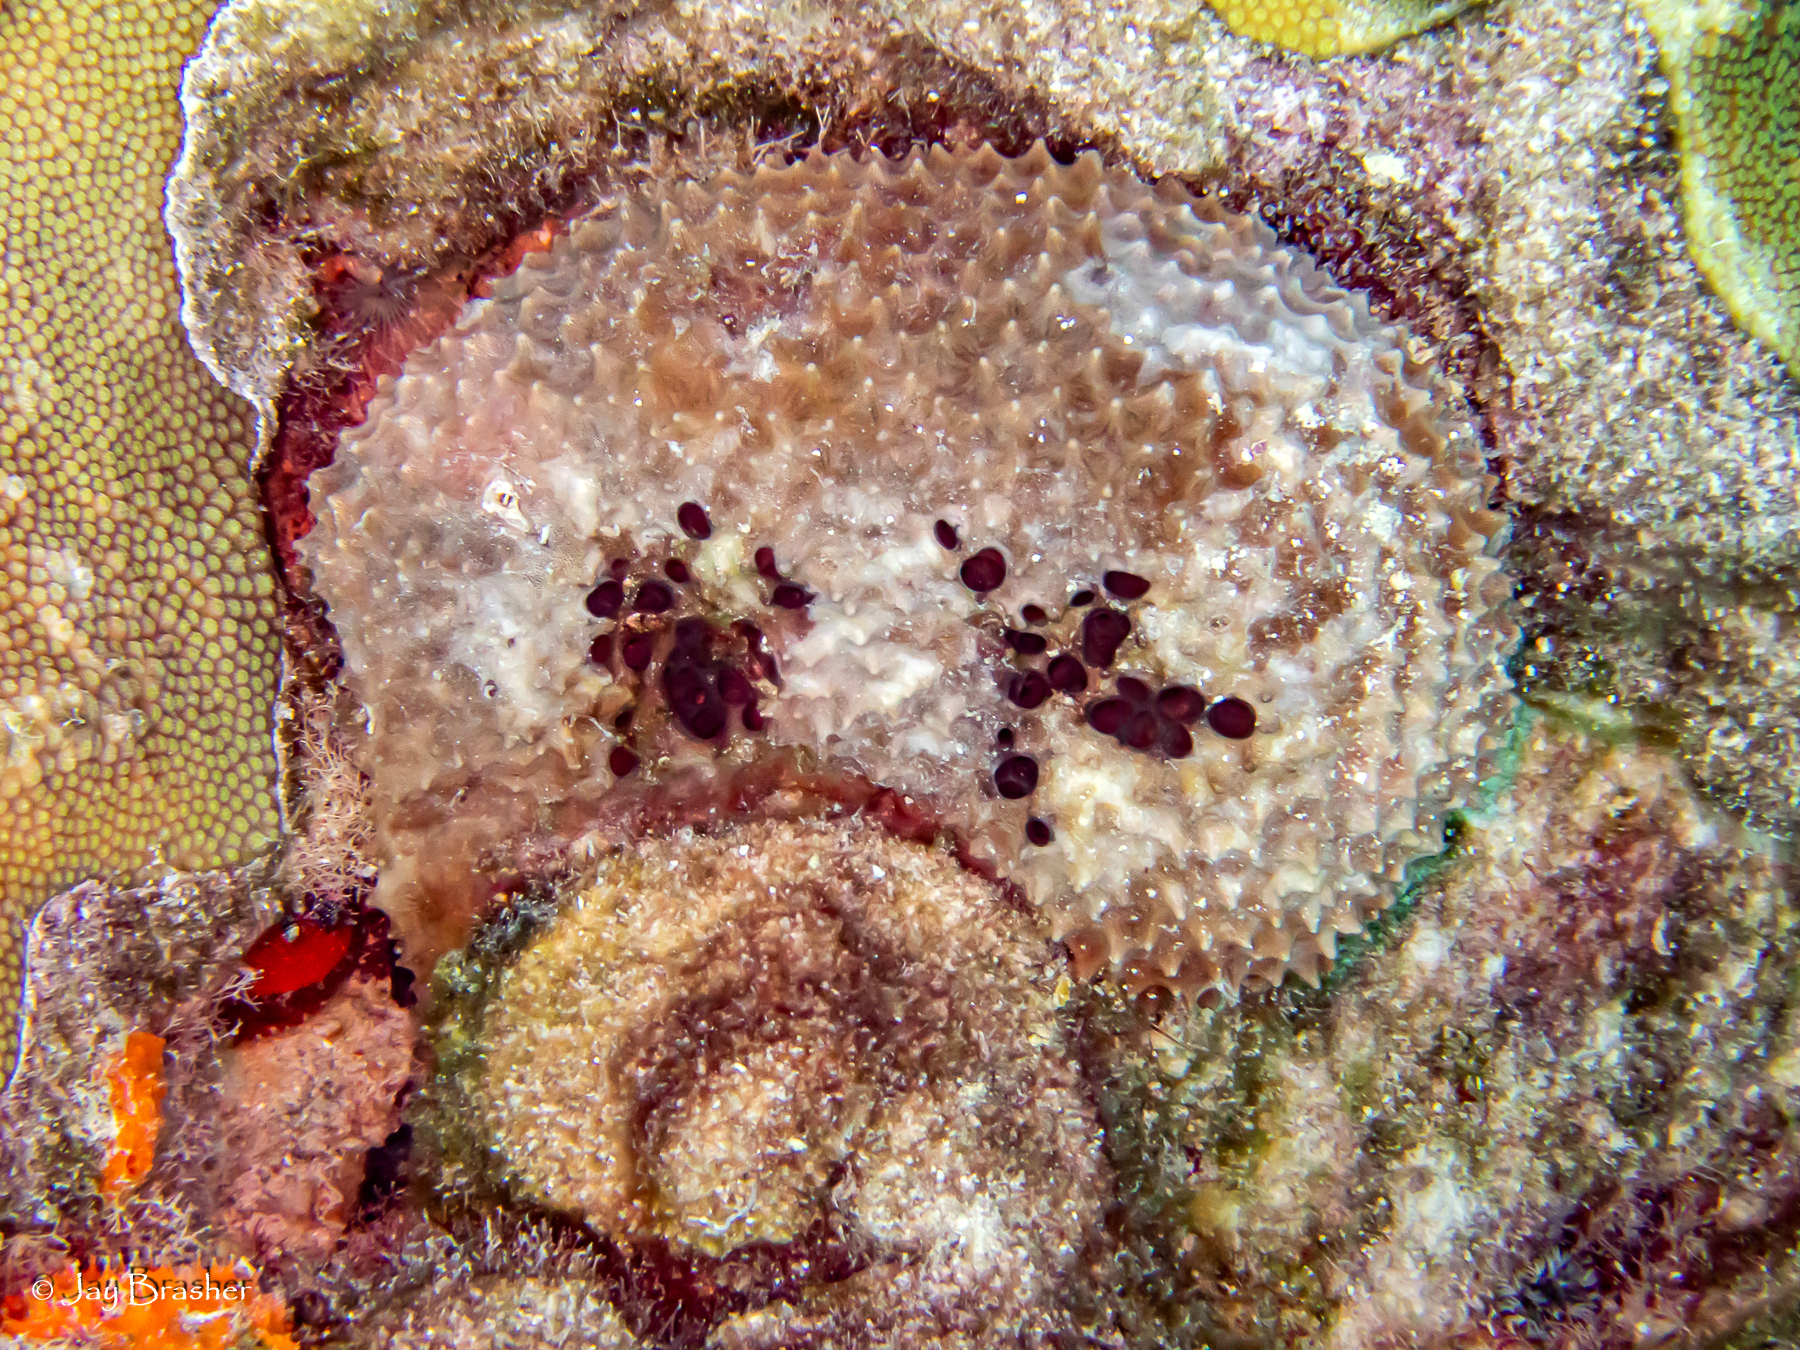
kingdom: Animalia
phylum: Porifera
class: Demospongiae
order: Dictyoceratida
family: Irciniidae
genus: Ircinia
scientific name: Ircinia felix
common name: Stinker sponge
